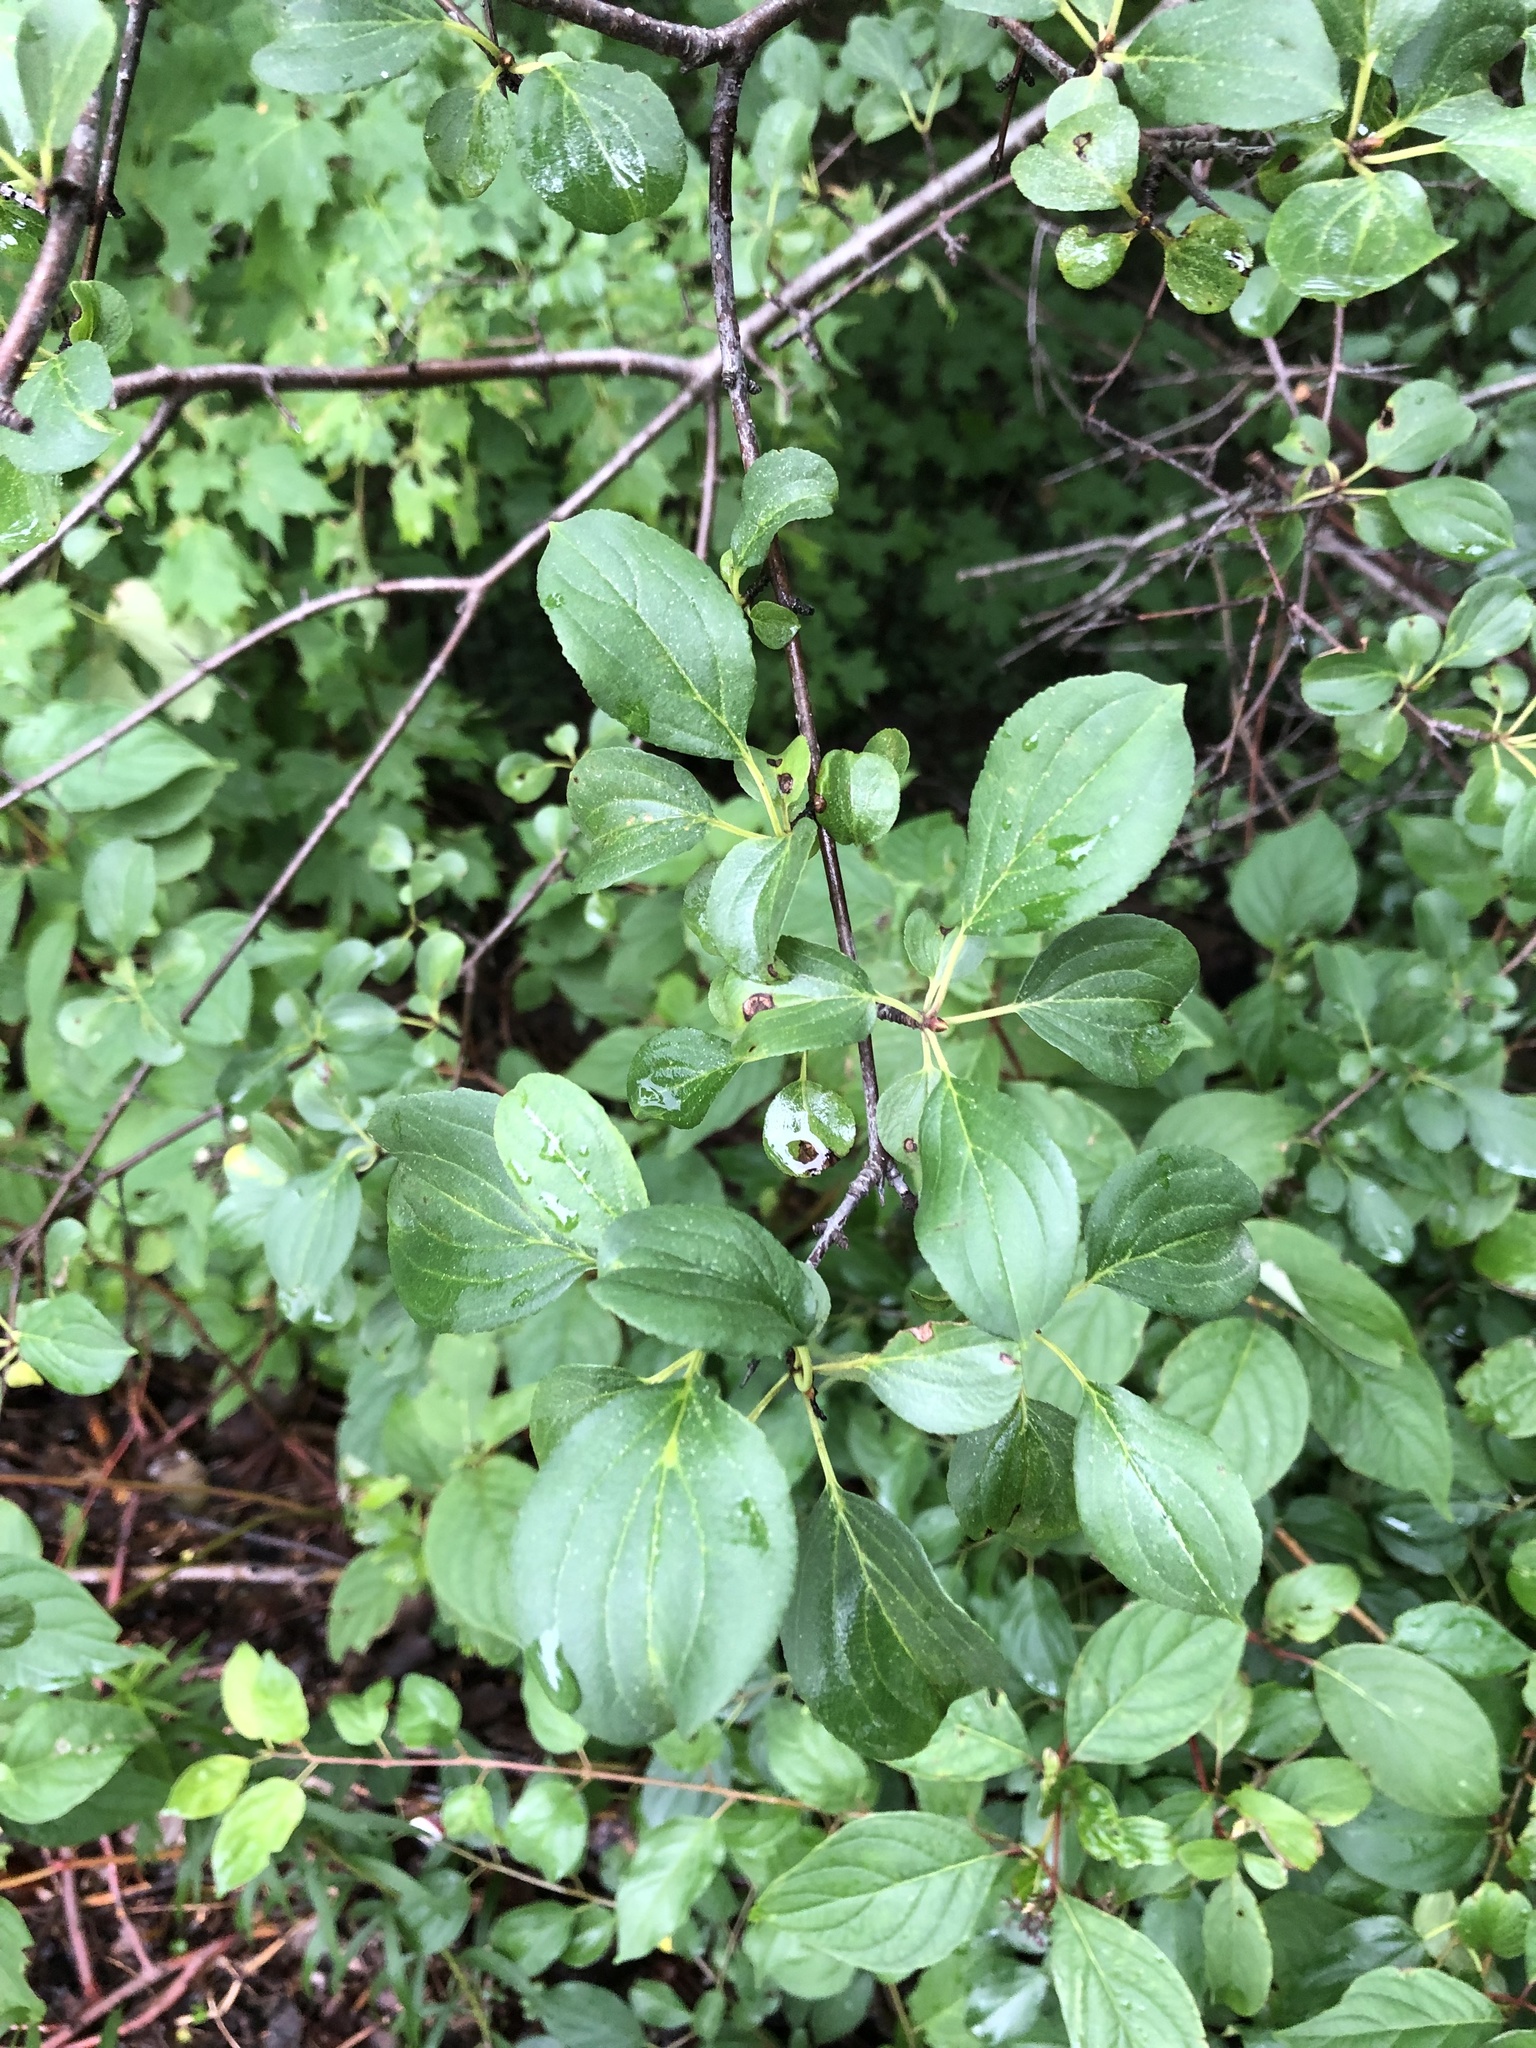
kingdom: Plantae
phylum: Tracheophyta
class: Magnoliopsida
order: Rosales
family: Rhamnaceae
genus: Rhamnus
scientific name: Rhamnus cathartica
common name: Common buckthorn
